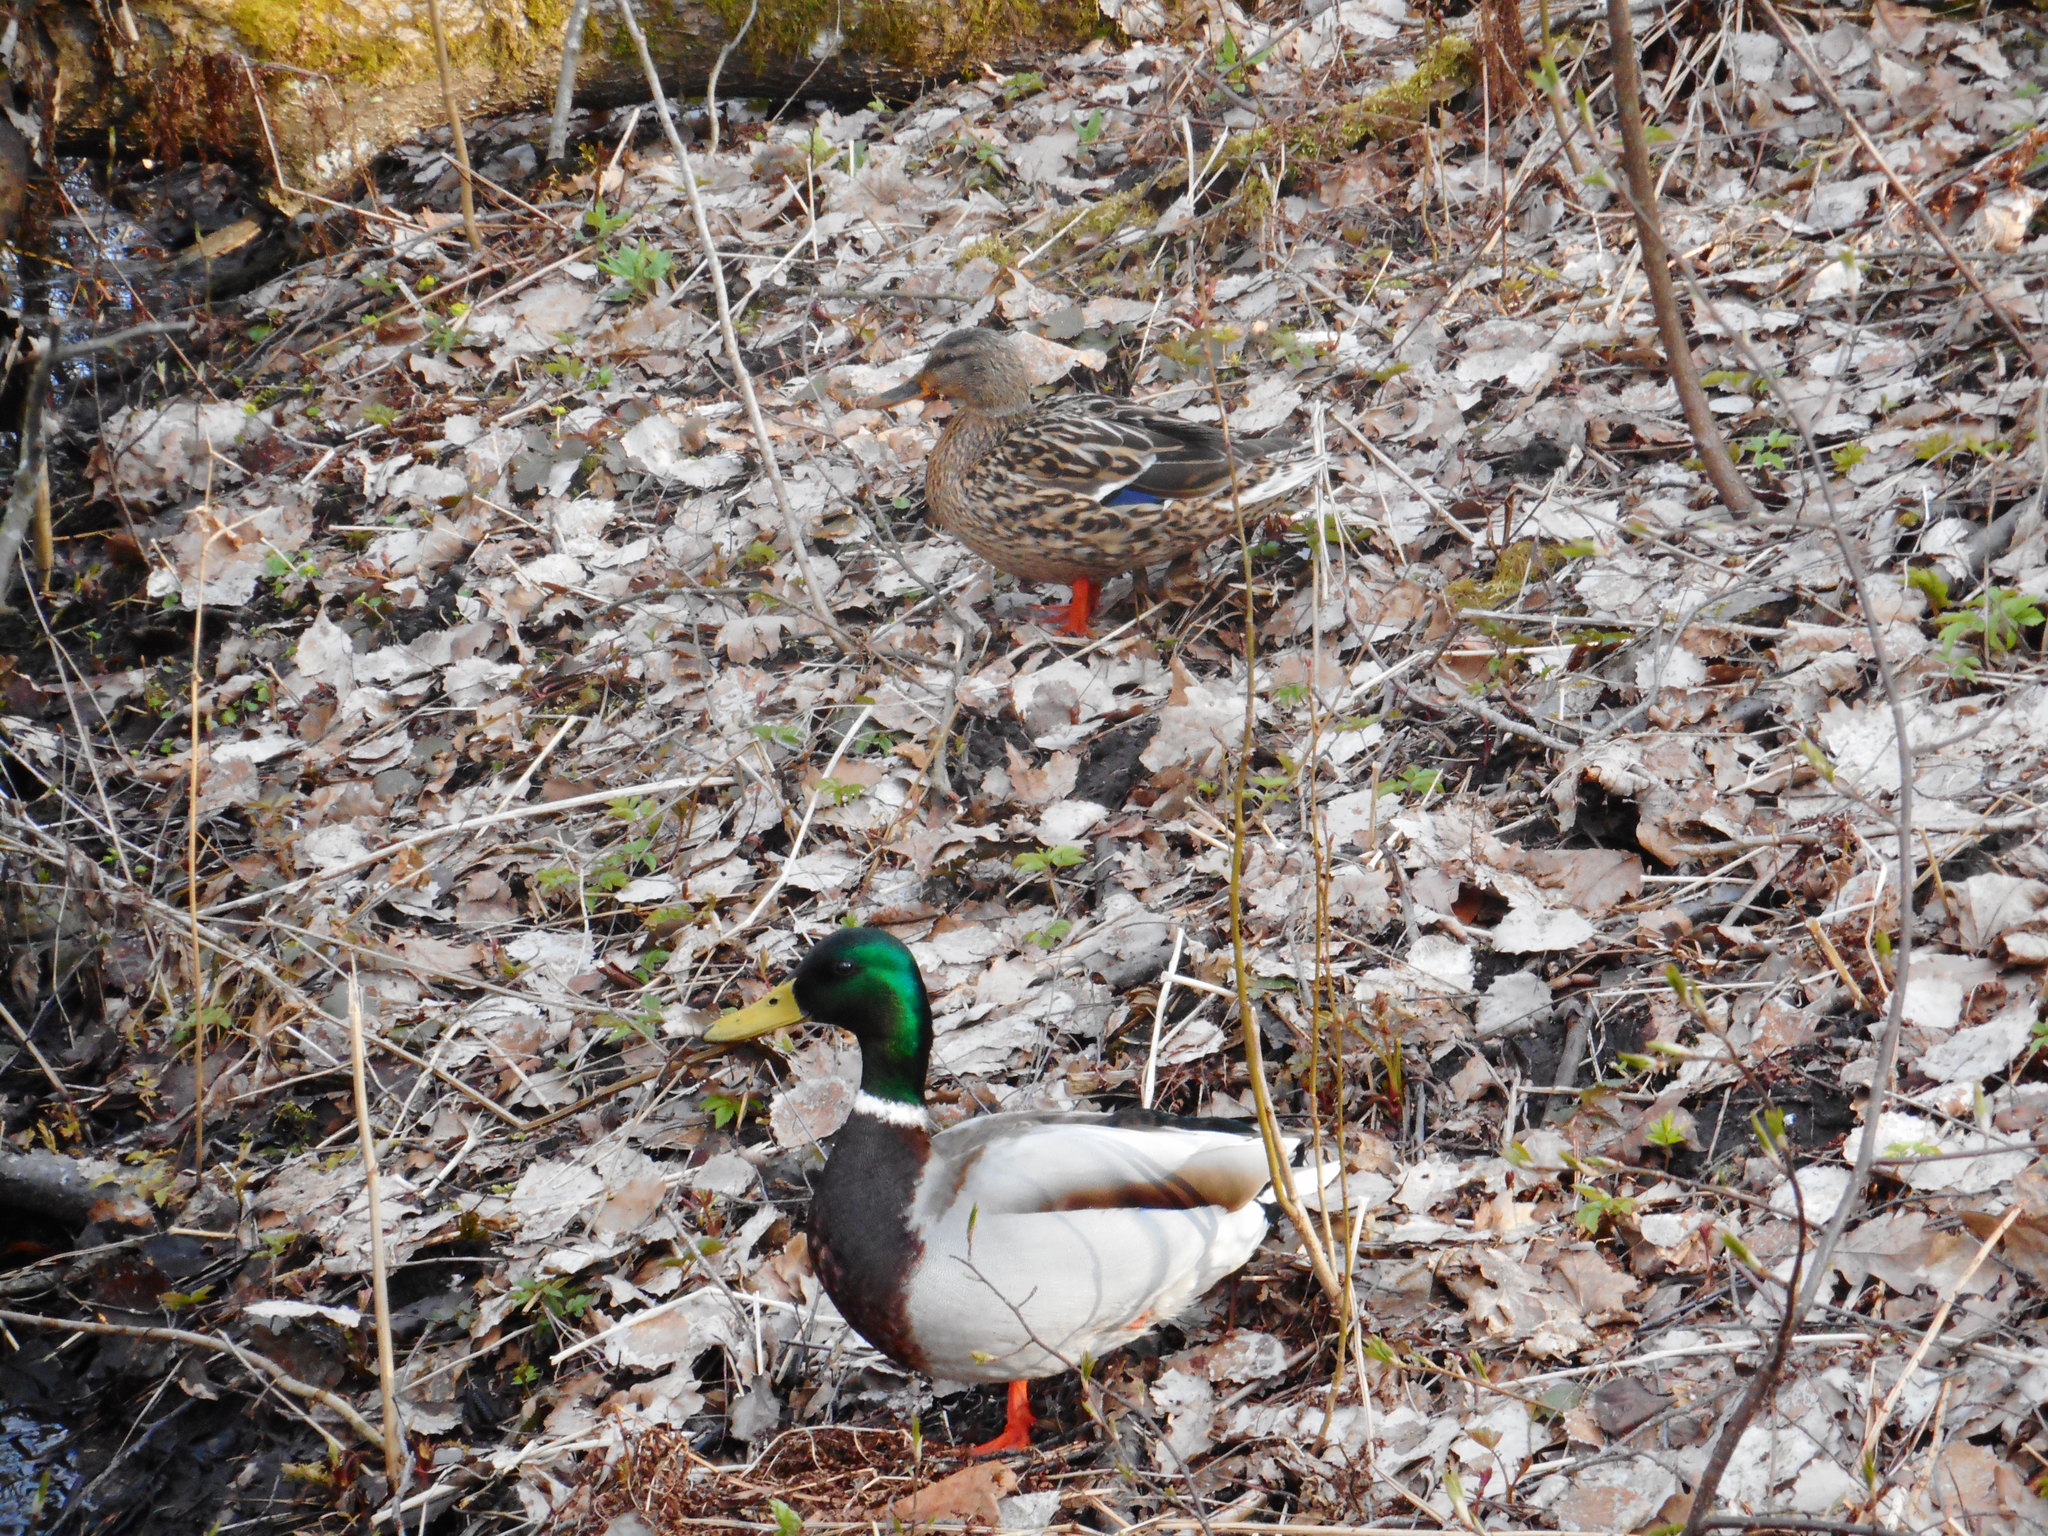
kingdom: Animalia
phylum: Chordata
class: Aves
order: Anseriformes
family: Anatidae
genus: Anas
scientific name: Anas platyrhynchos
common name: Mallard
